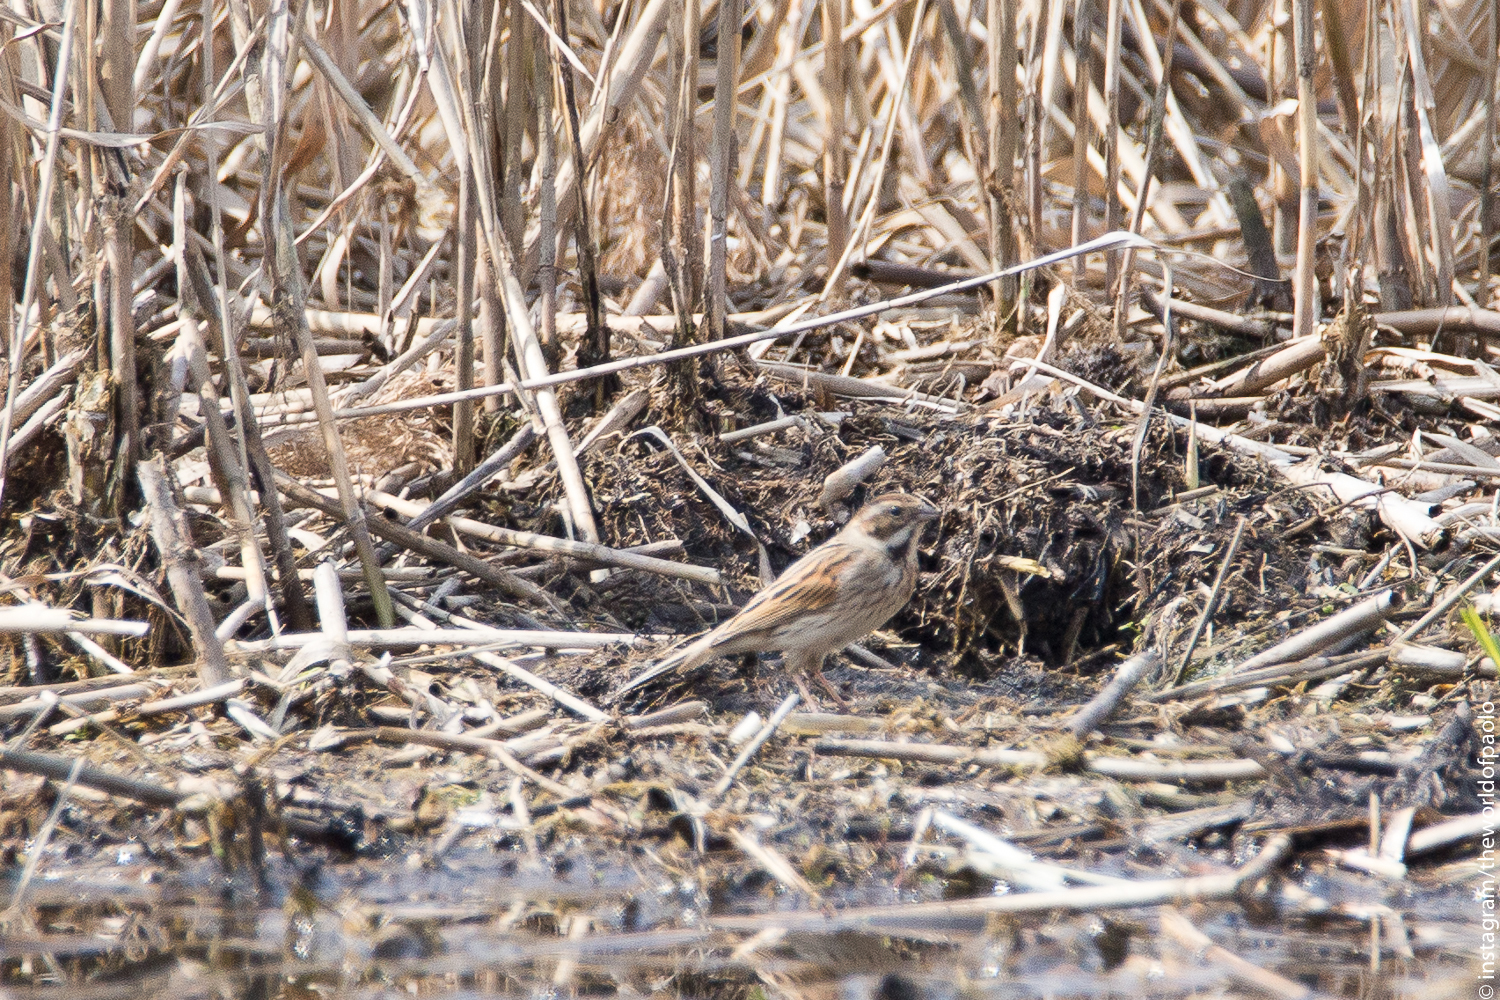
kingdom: Animalia
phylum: Chordata
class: Aves
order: Passeriformes
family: Emberizidae
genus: Emberiza
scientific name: Emberiza schoeniclus
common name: Reed bunting
